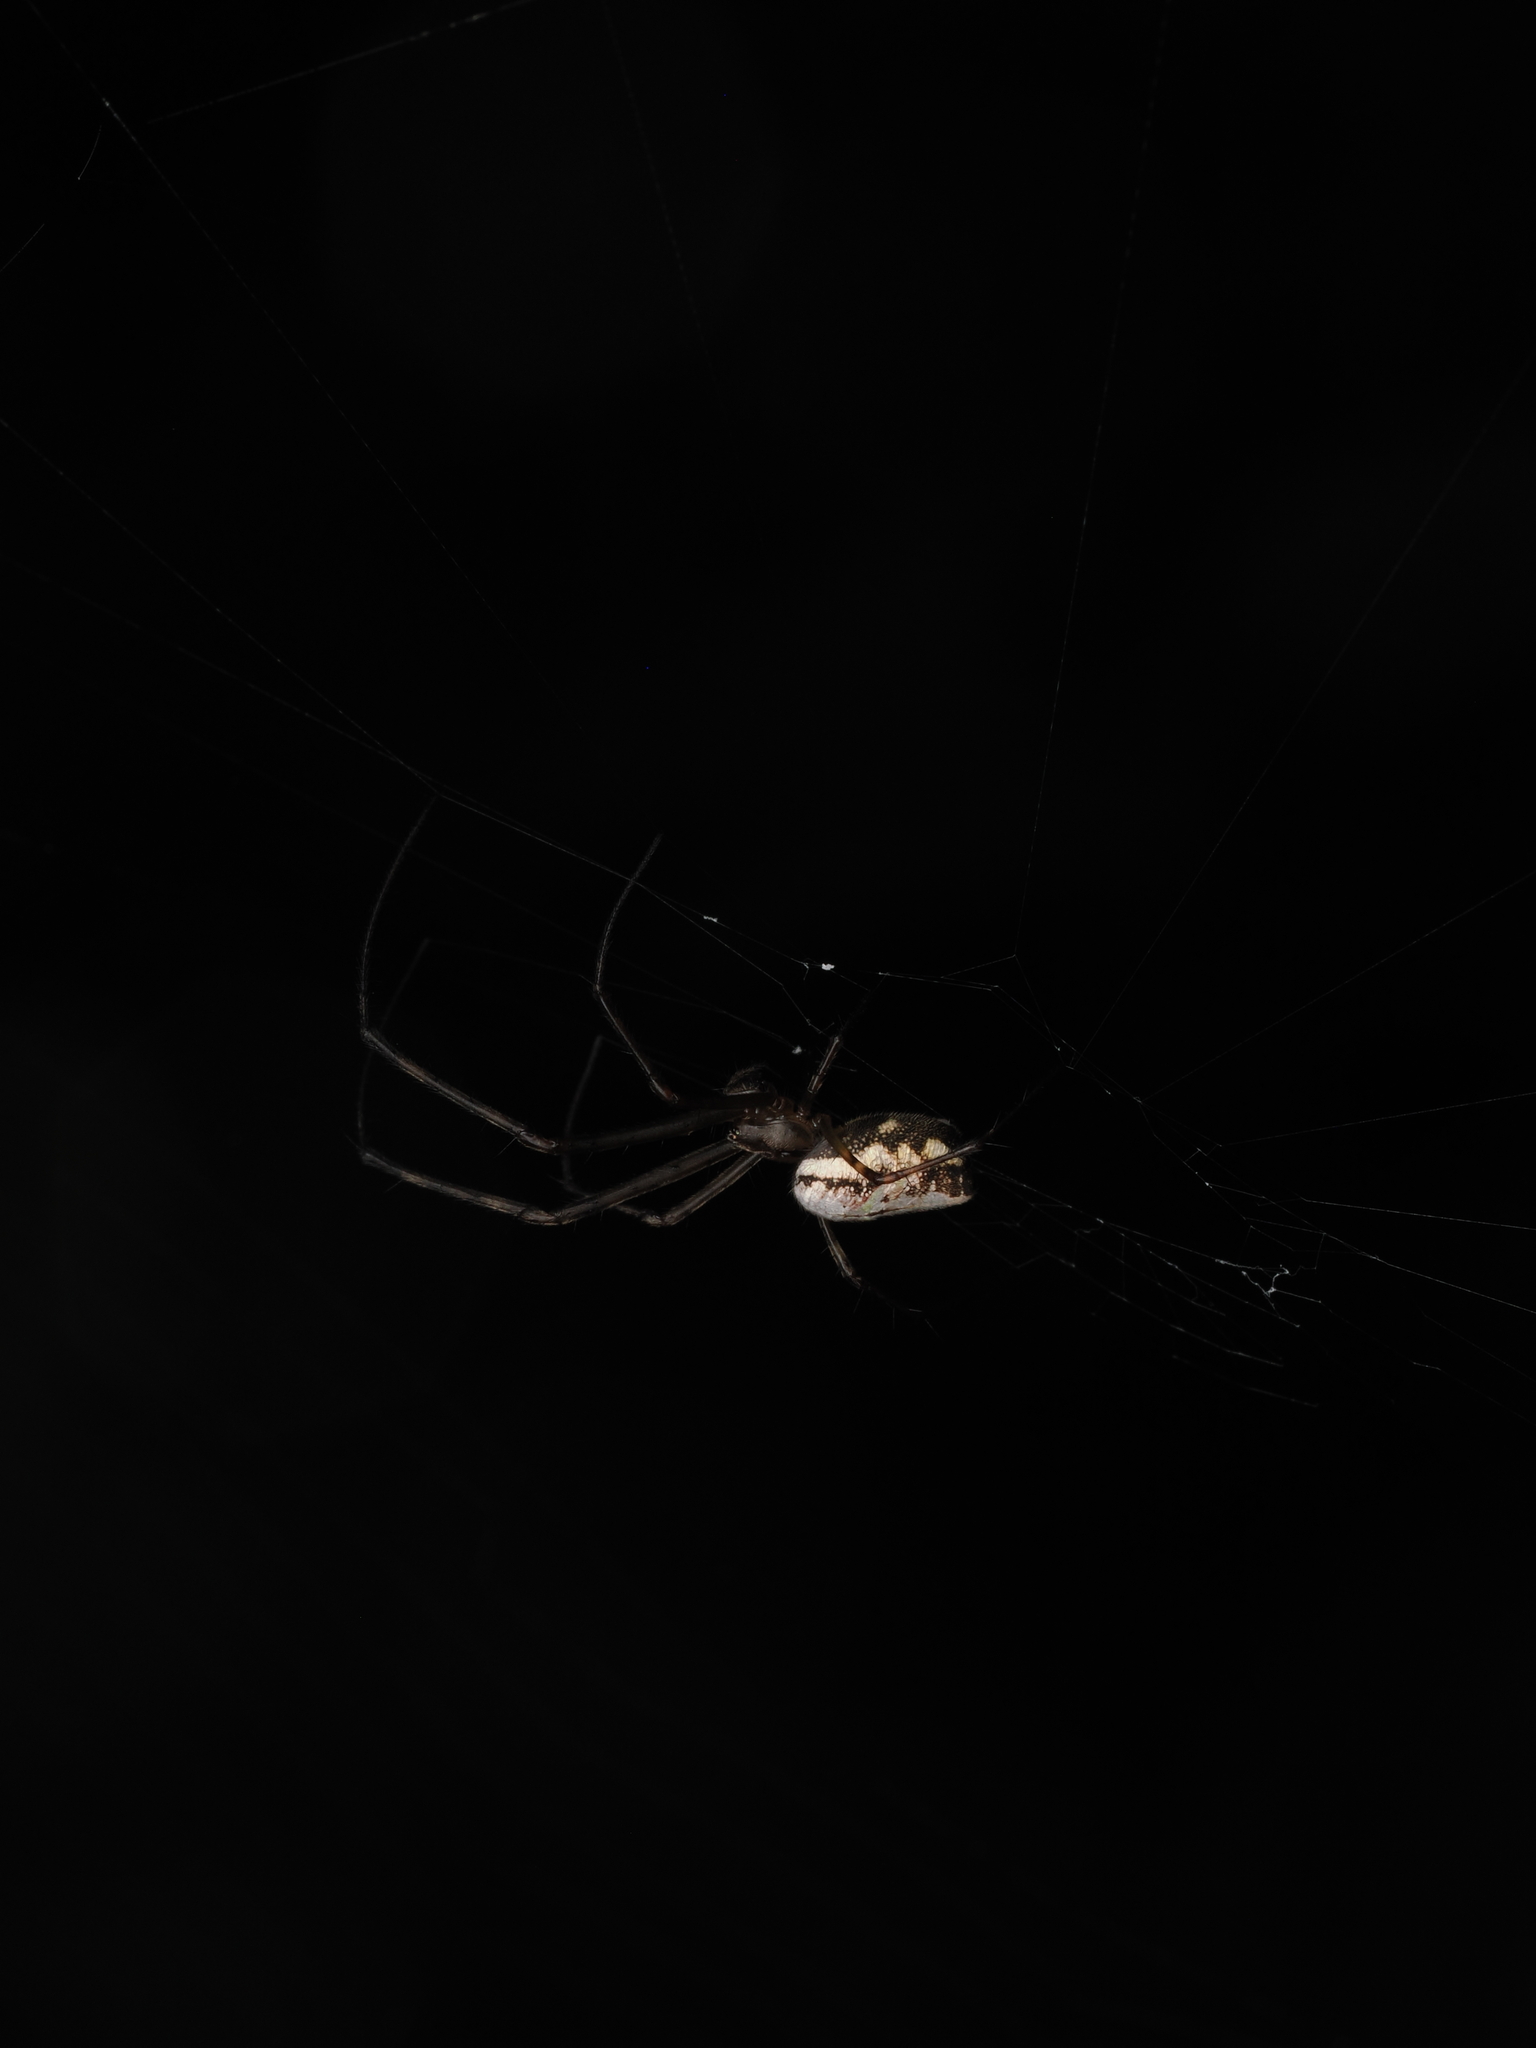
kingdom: Animalia
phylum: Arthropoda
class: Arachnida
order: Araneae
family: Tetragnathidae
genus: Tylorida
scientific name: Tylorida ventralis
